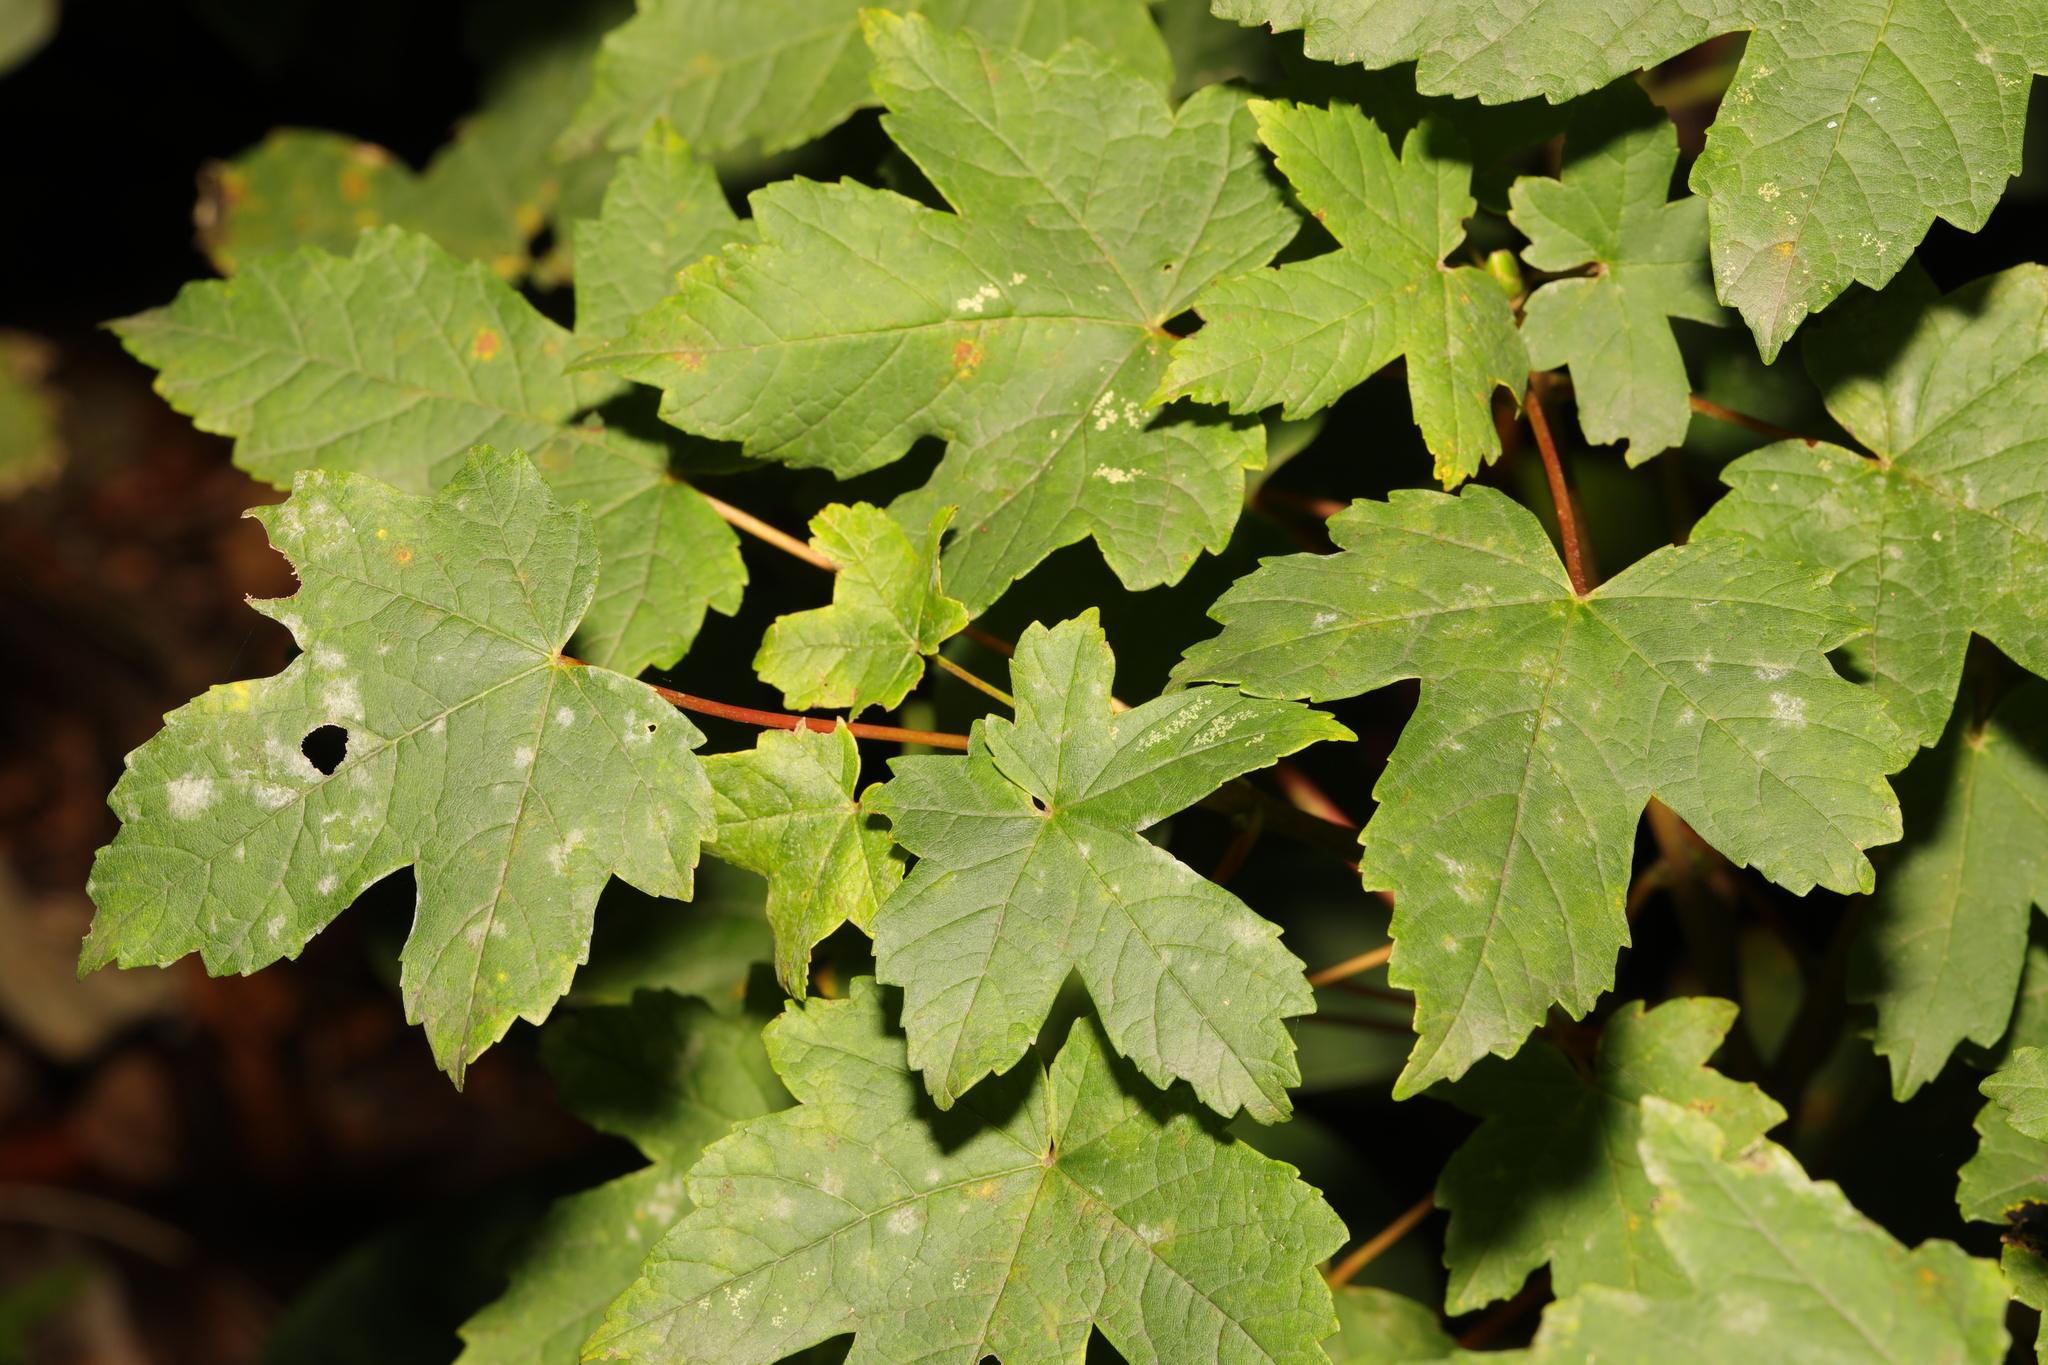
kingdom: Plantae
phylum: Tracheophyta
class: Magnoliopsida
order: Sapindales
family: Sapindaceae
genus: Acer
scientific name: Acer pseudoplatanus
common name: Sycamore
